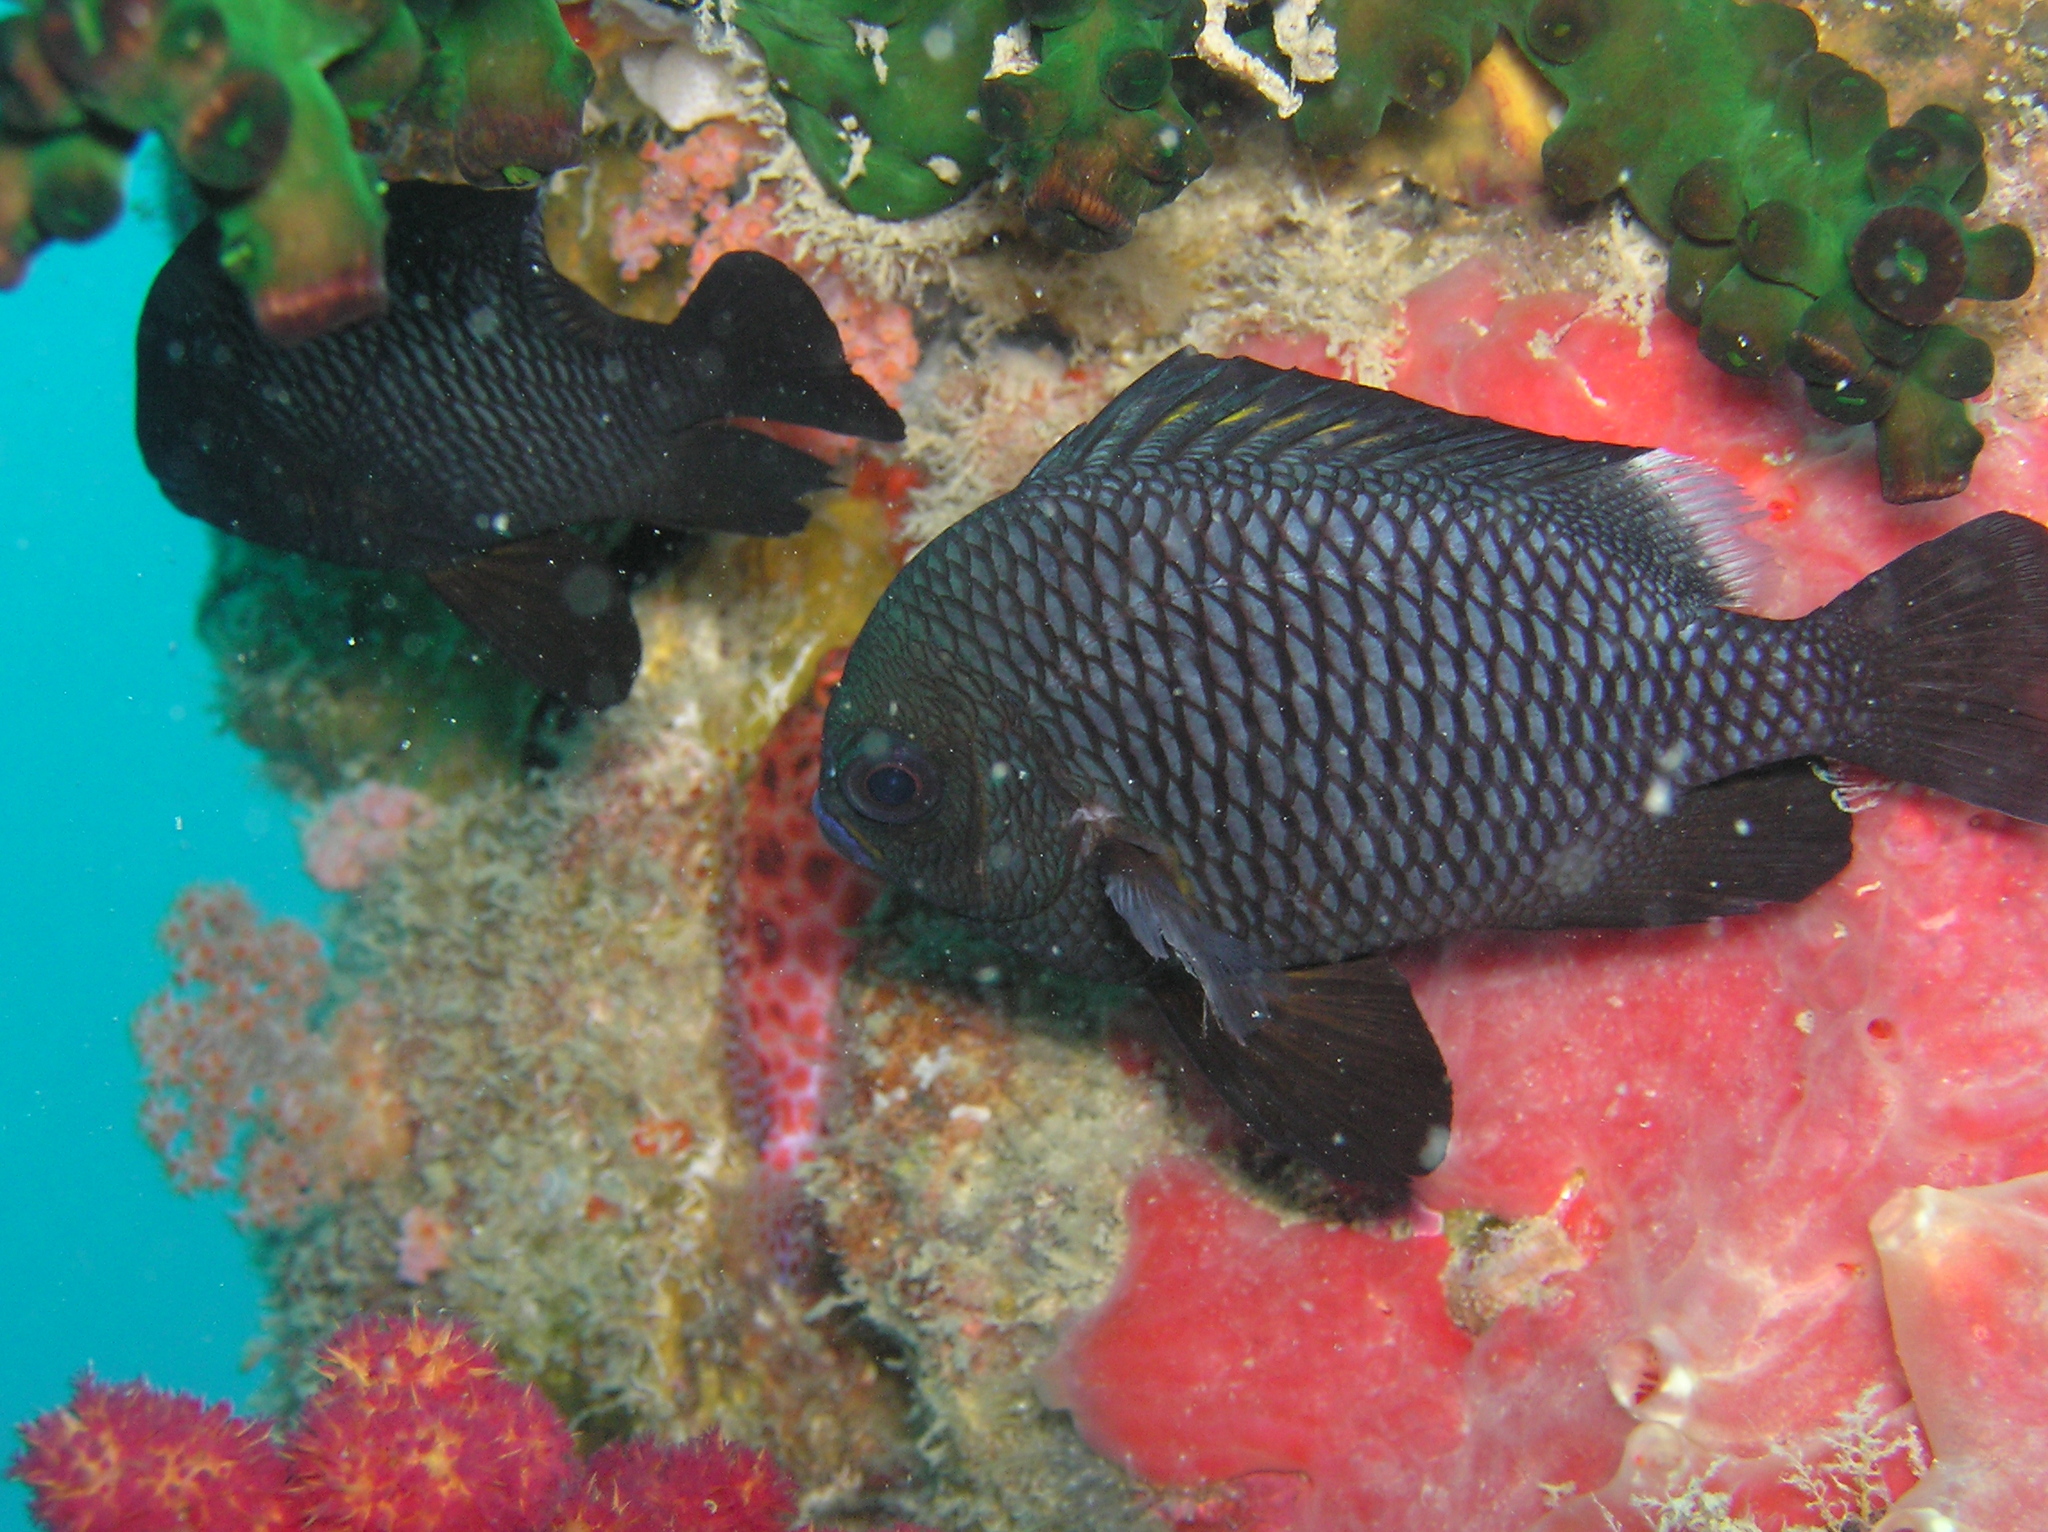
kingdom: Animalia
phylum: Chordata
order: Perciformes
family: Pomacentridae
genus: Dascyllus
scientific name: Dascyllus trimaculatus
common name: Threespot dascyllus
